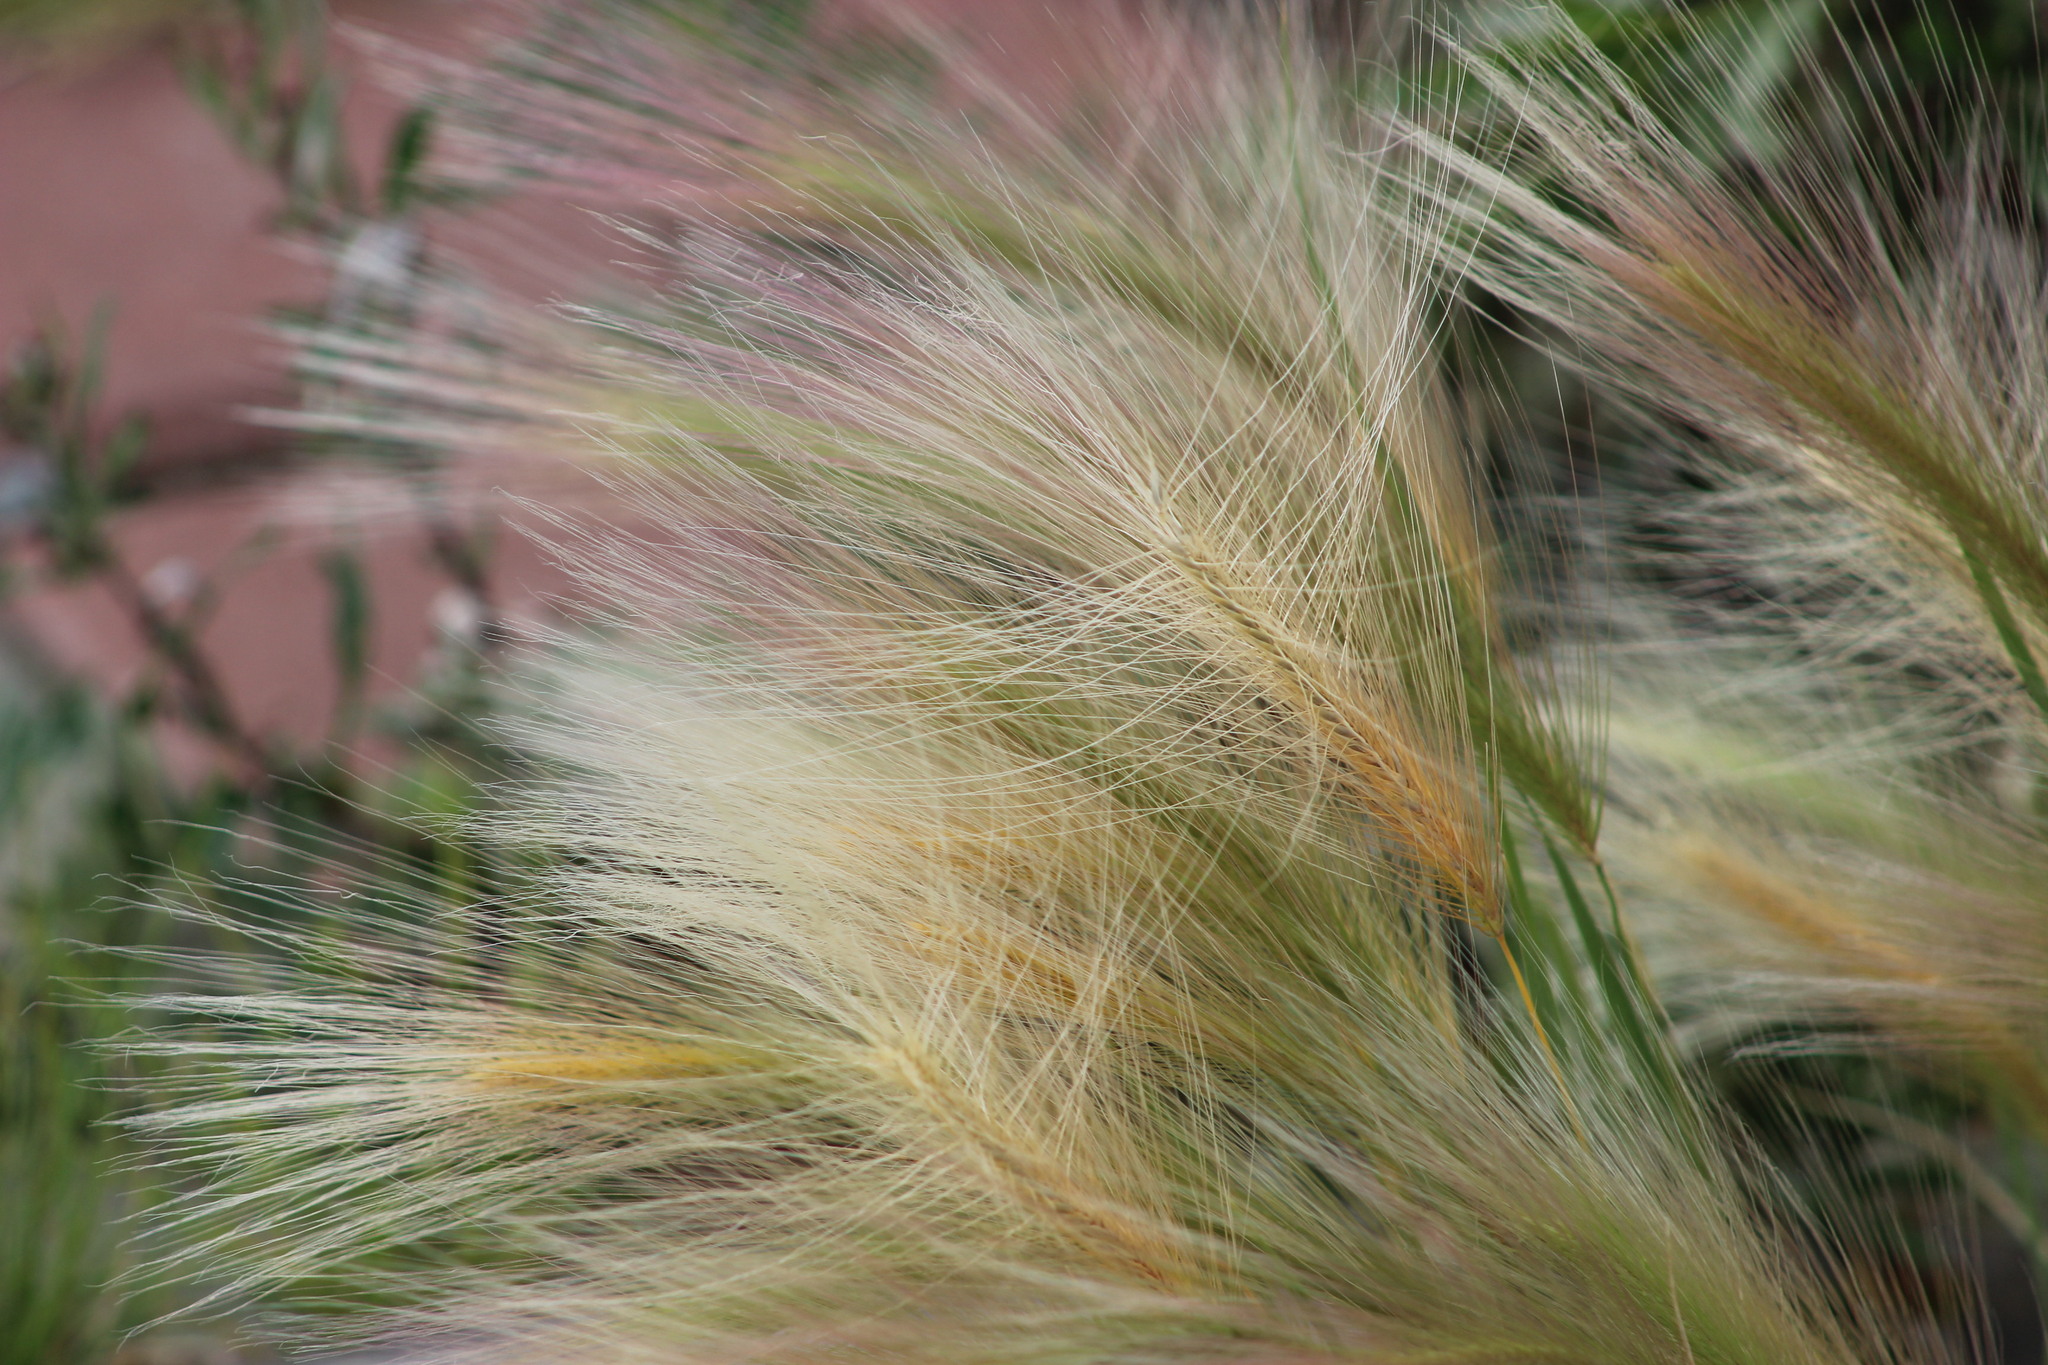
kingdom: Plantae
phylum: Tracheophyta
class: Liliopsida
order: Poales
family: Poaceae
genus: Hordeum
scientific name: Hordeum jubatum
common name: Foxtail barley
